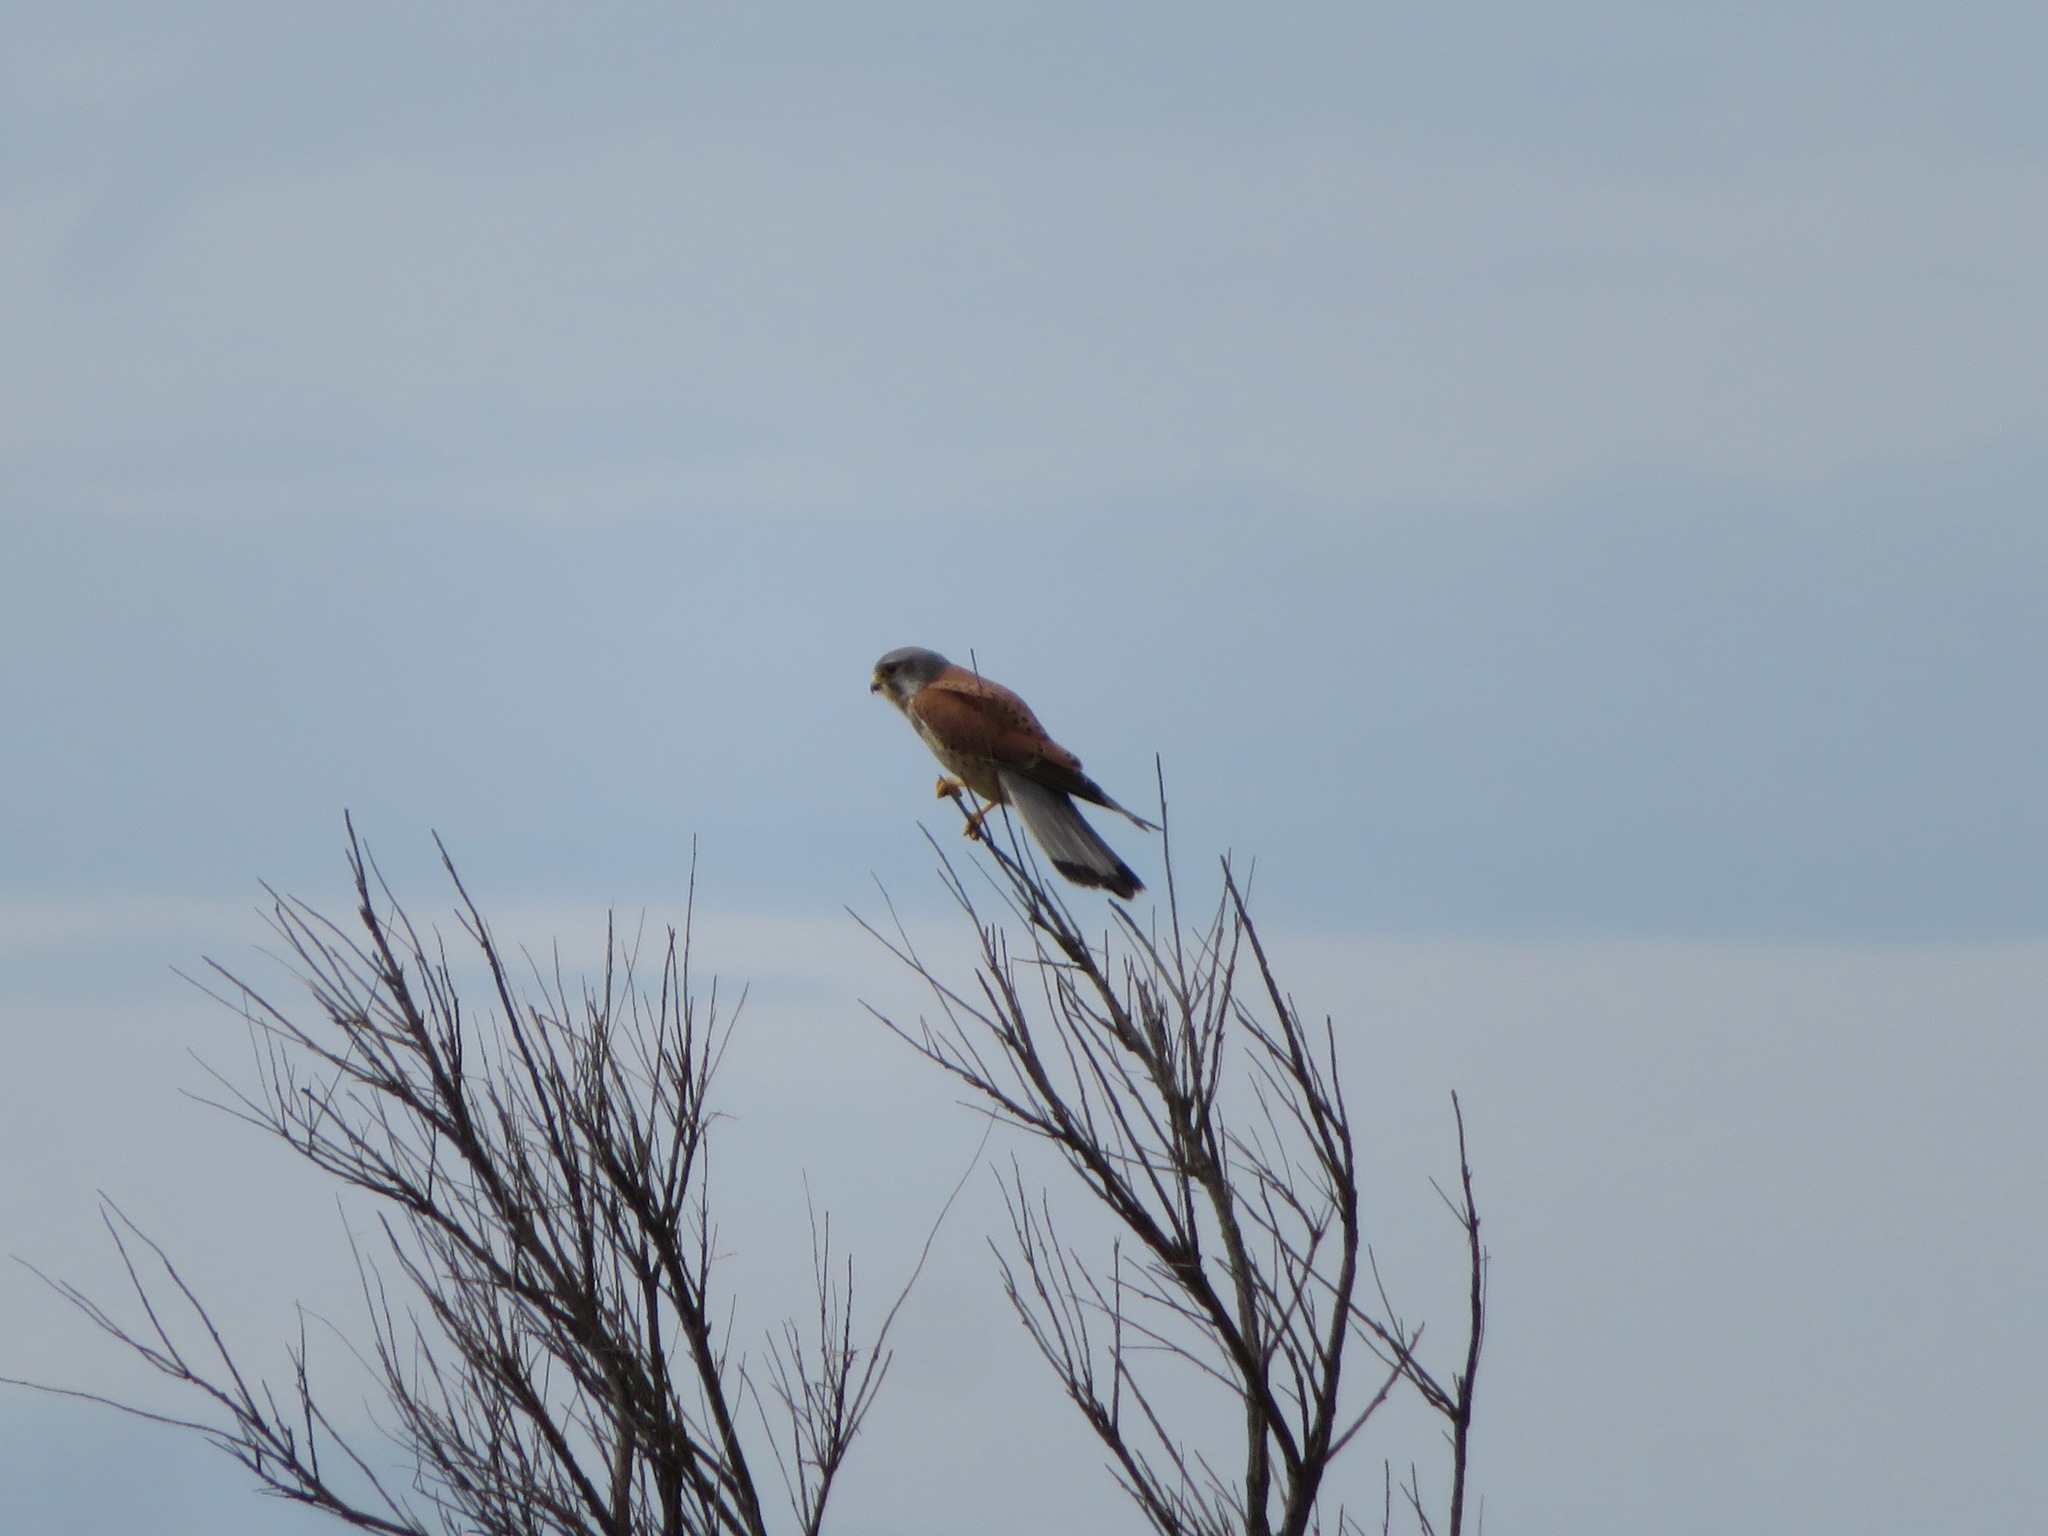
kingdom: Animalia
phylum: Chordata
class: Aves
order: Falconiformes
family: Falconidae
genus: Falco
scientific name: Falco tinnunculus
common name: Common kestrel
